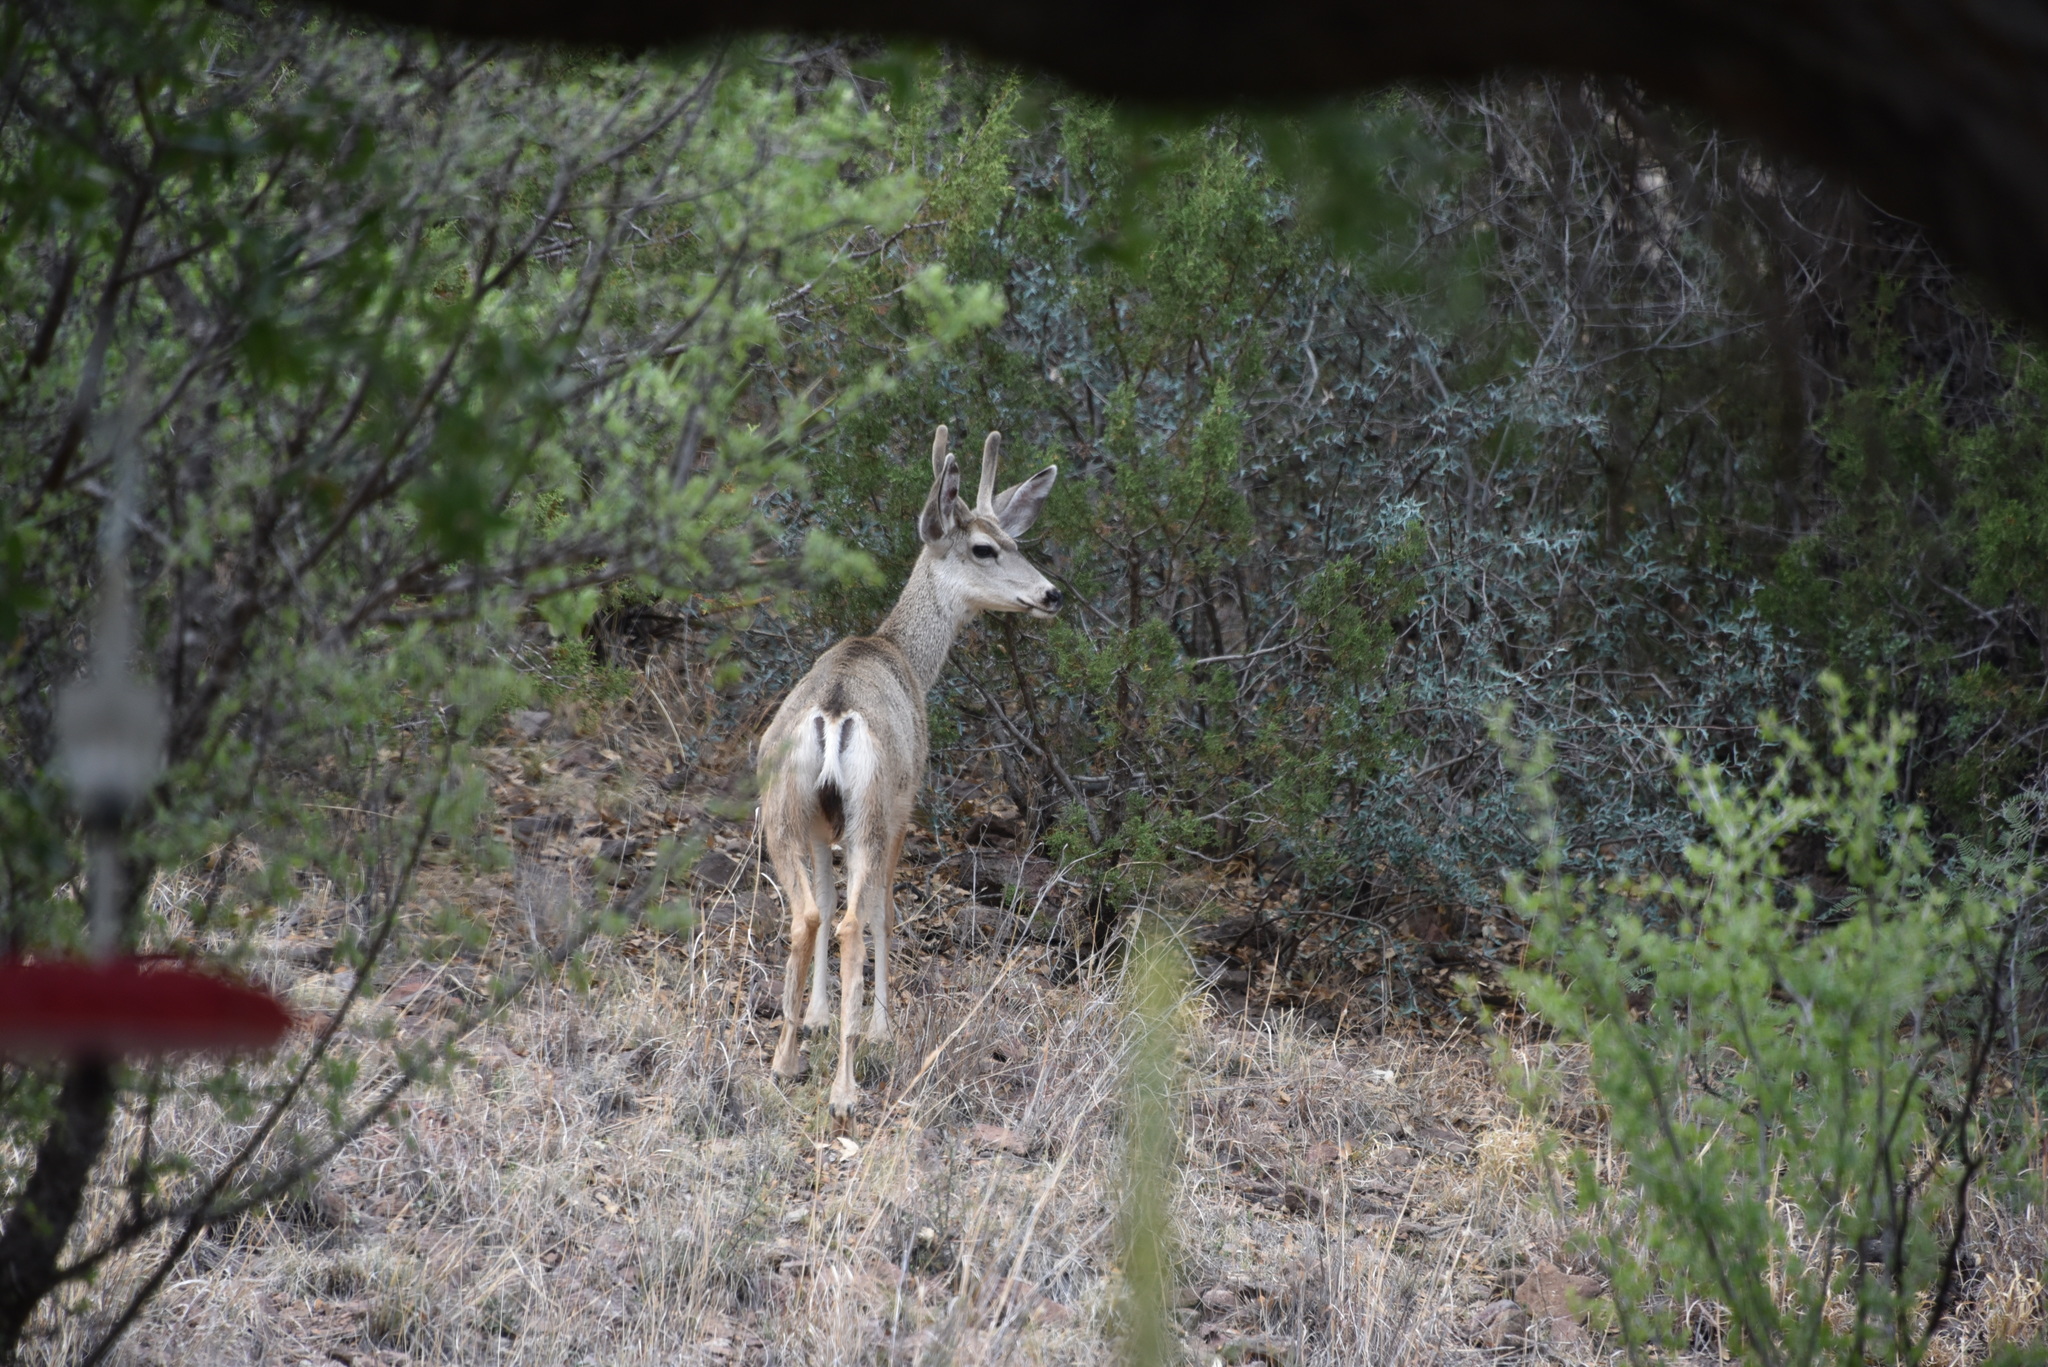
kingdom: Animalia
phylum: Chordata
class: Mammalia
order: Artiodactyla
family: Cervidae
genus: Odocoileus
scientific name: Odocoileus hemionus
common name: Mule deer
